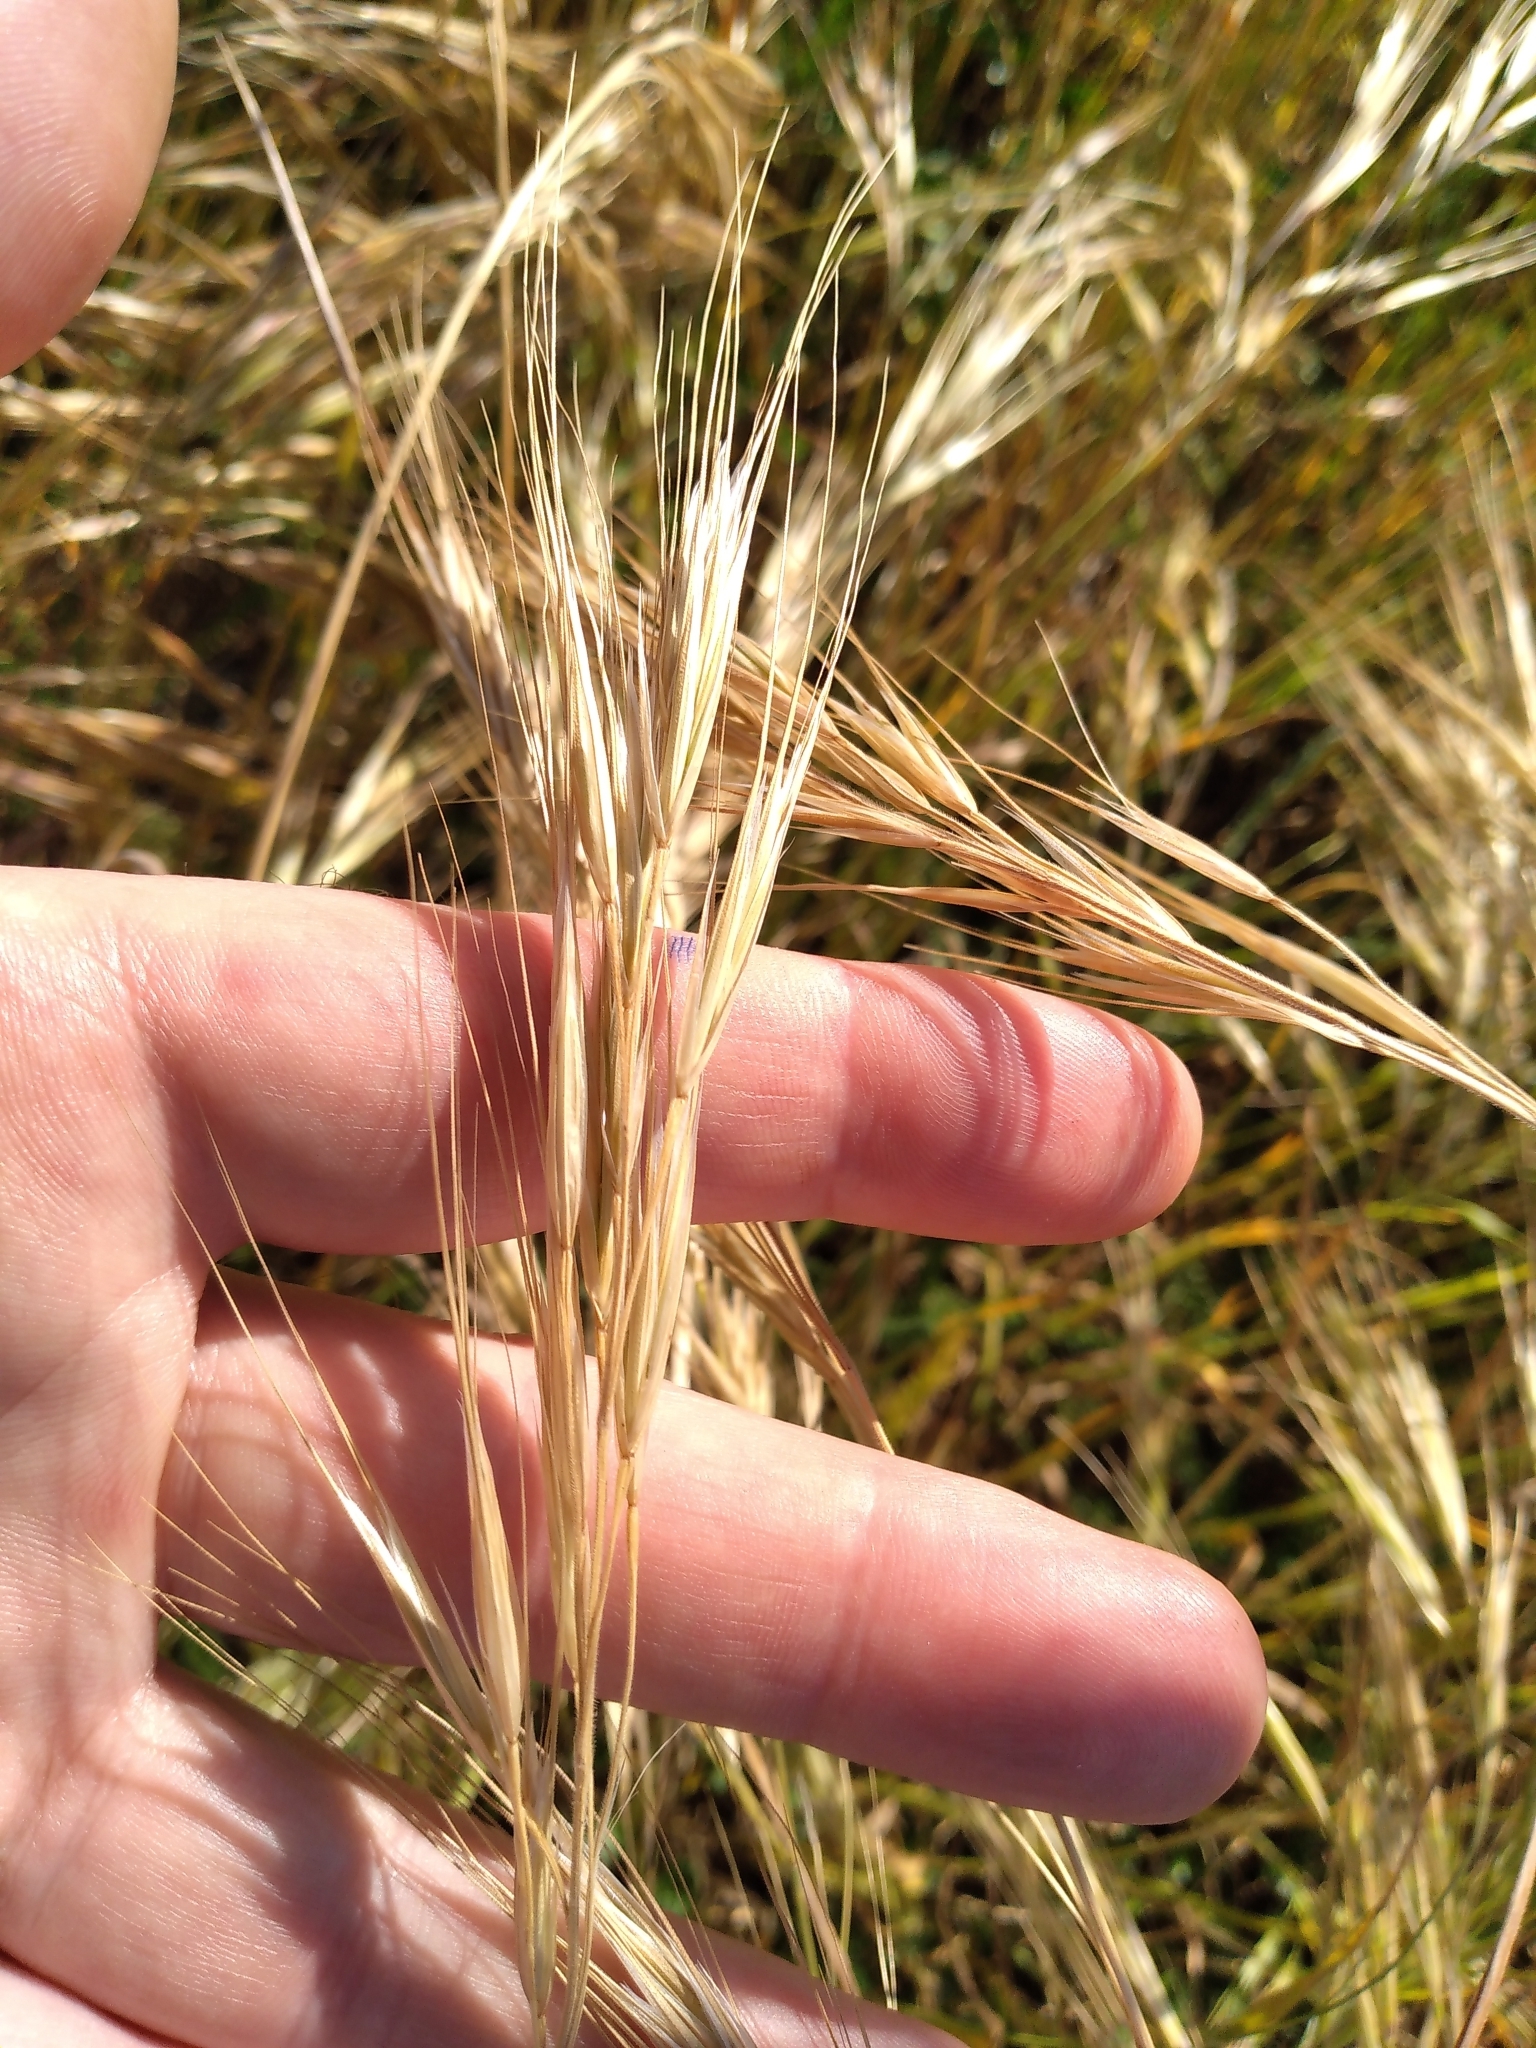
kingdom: Plantae
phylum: Tracheophyta
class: Liliopsida
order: Poales
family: Poaceae
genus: Bromus
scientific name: Bromus diandrus
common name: Ripgut brome
